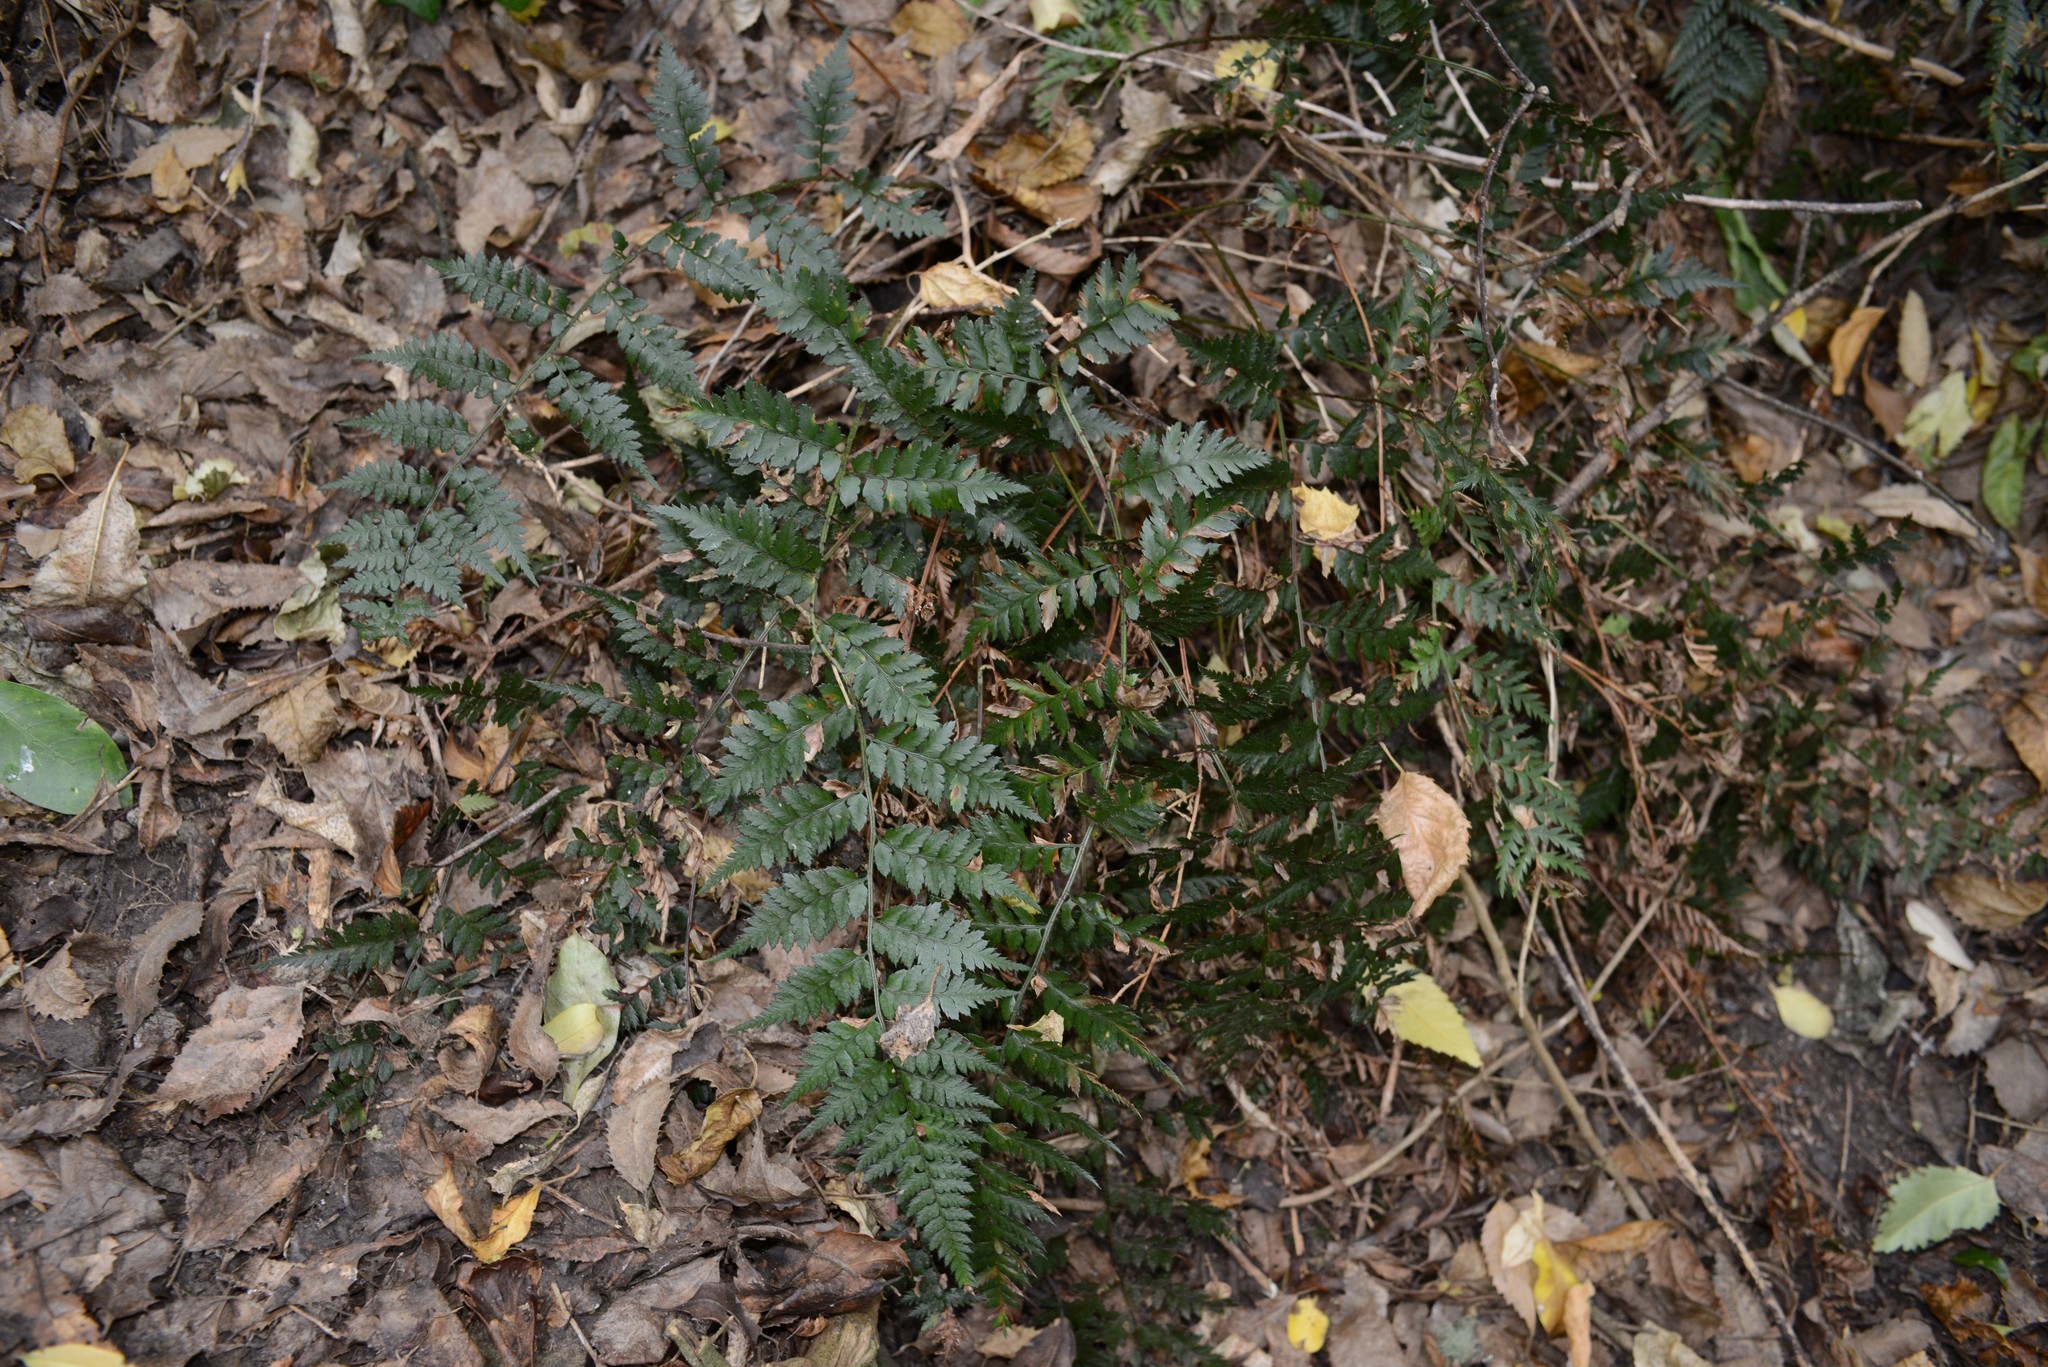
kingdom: Plantae
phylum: Tracheophyta
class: Polypodiopsida
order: Polypodiales
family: Dryopteridaceae
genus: Polystichum
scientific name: Polystichum oculatum
